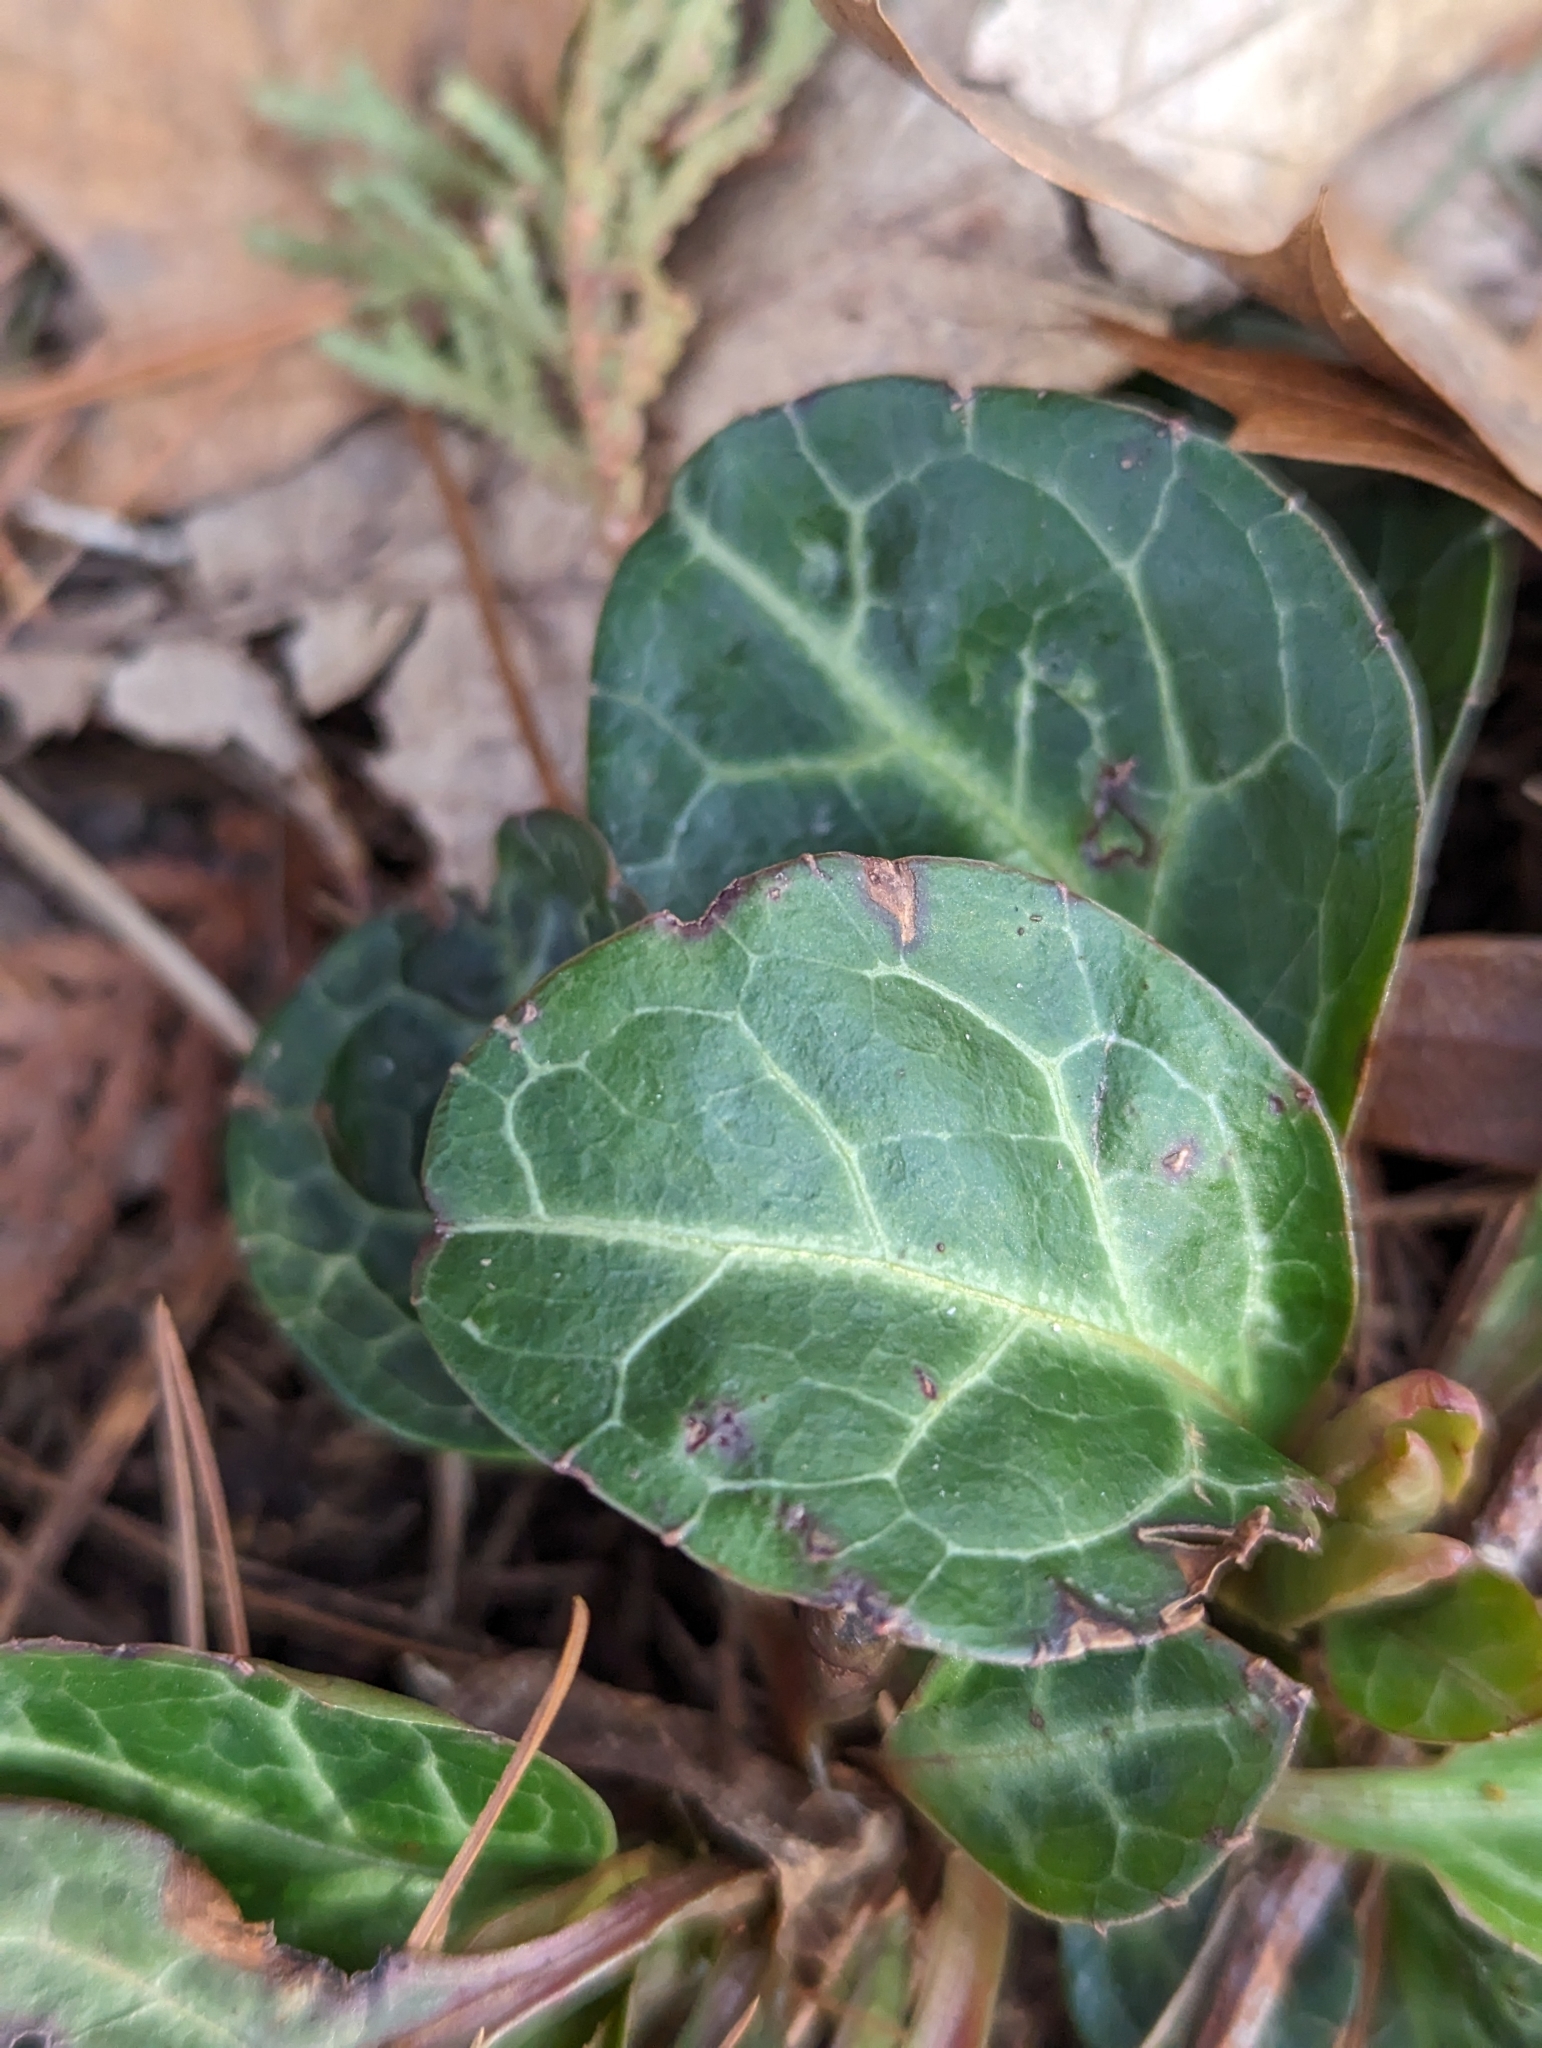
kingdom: Plantae
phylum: Tracheophyta
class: Magnoliopsida
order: Ericales
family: Ericaceae
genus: Pyrola
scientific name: Pyrola americana
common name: American wintergreen
